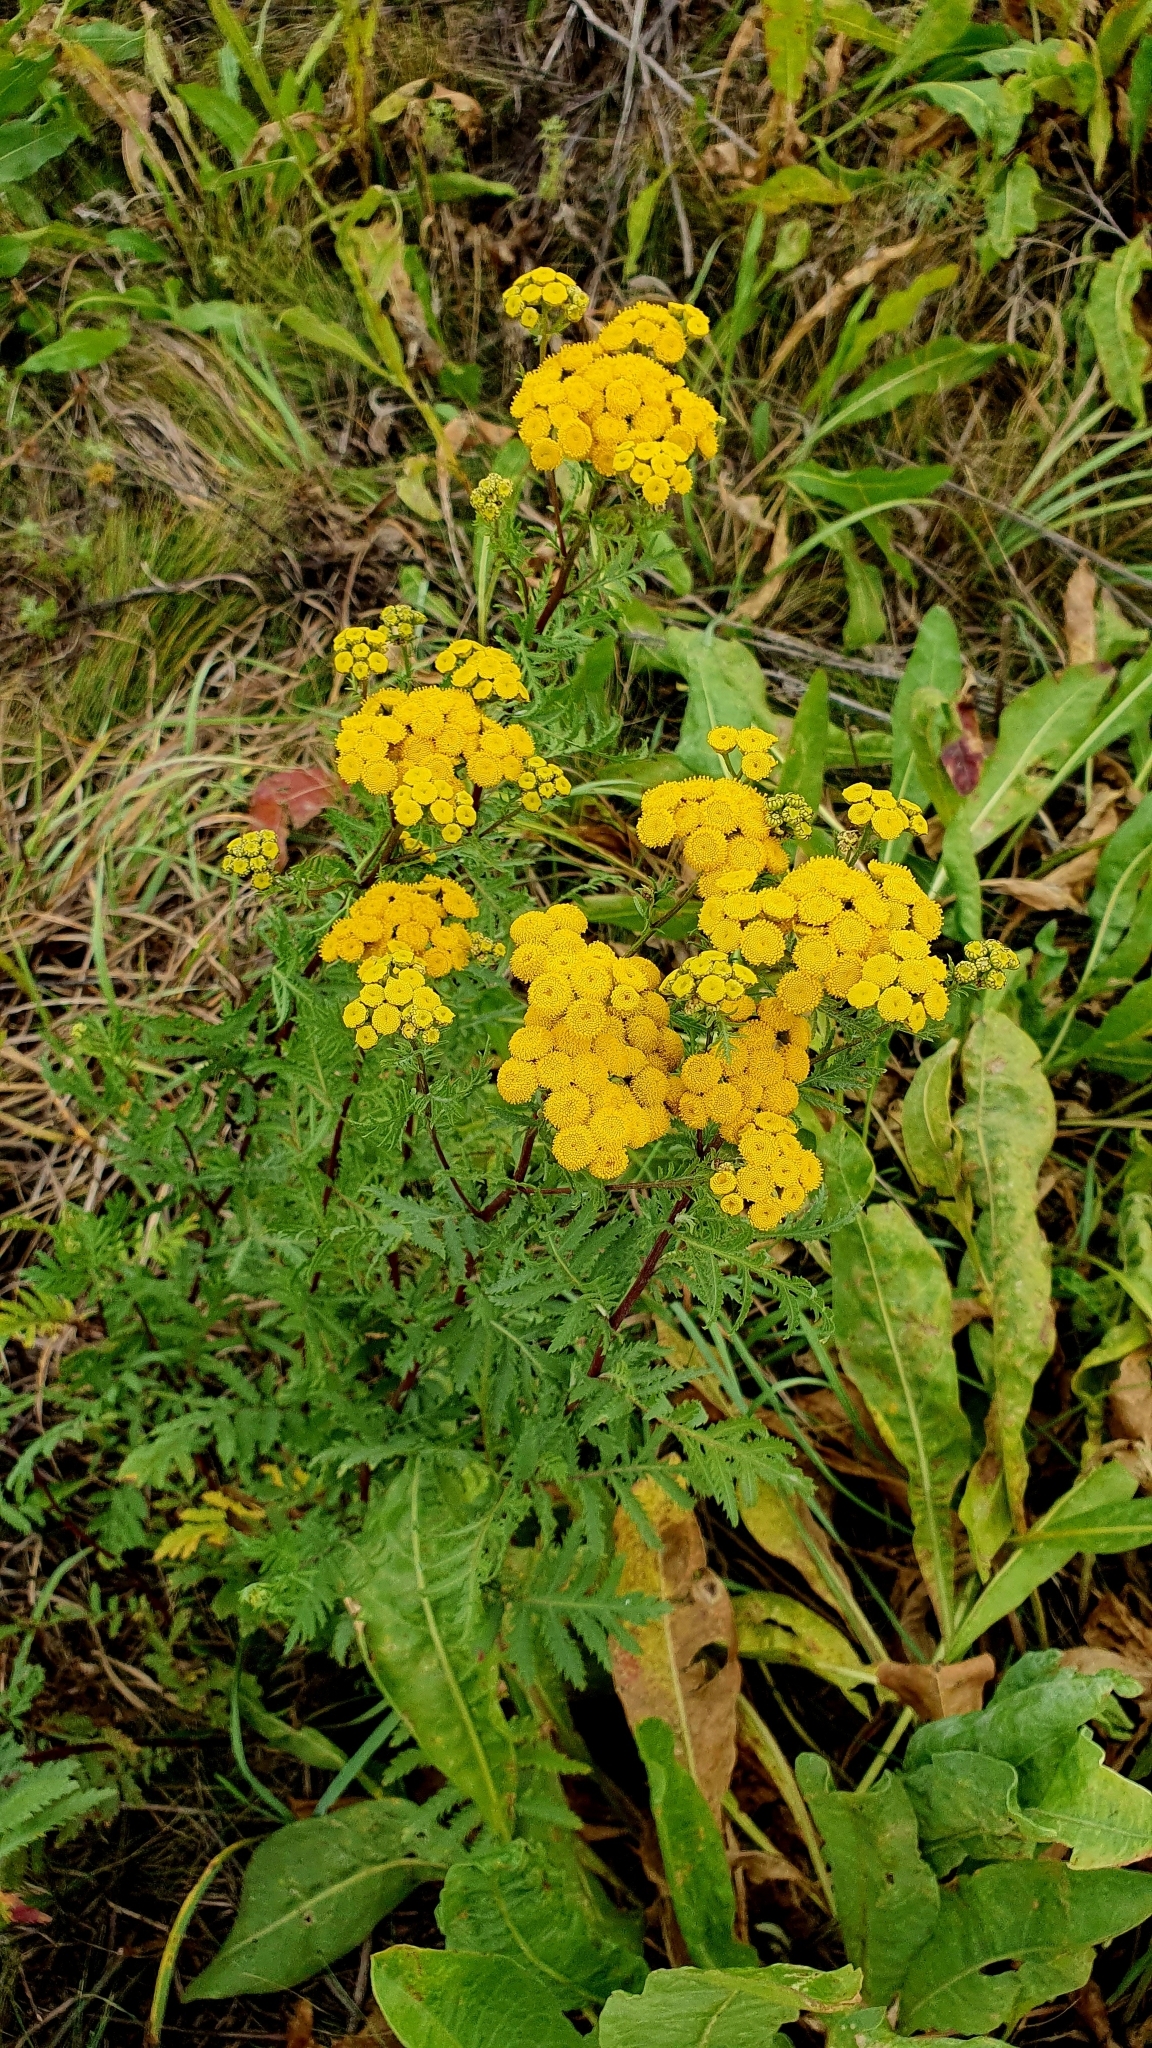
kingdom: Plantae
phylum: Tracheophyta
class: Magnoliopsida
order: Asterales
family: Asteraceae
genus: Tanacetum
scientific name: Tanacetum vulgare
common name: Common tansy
